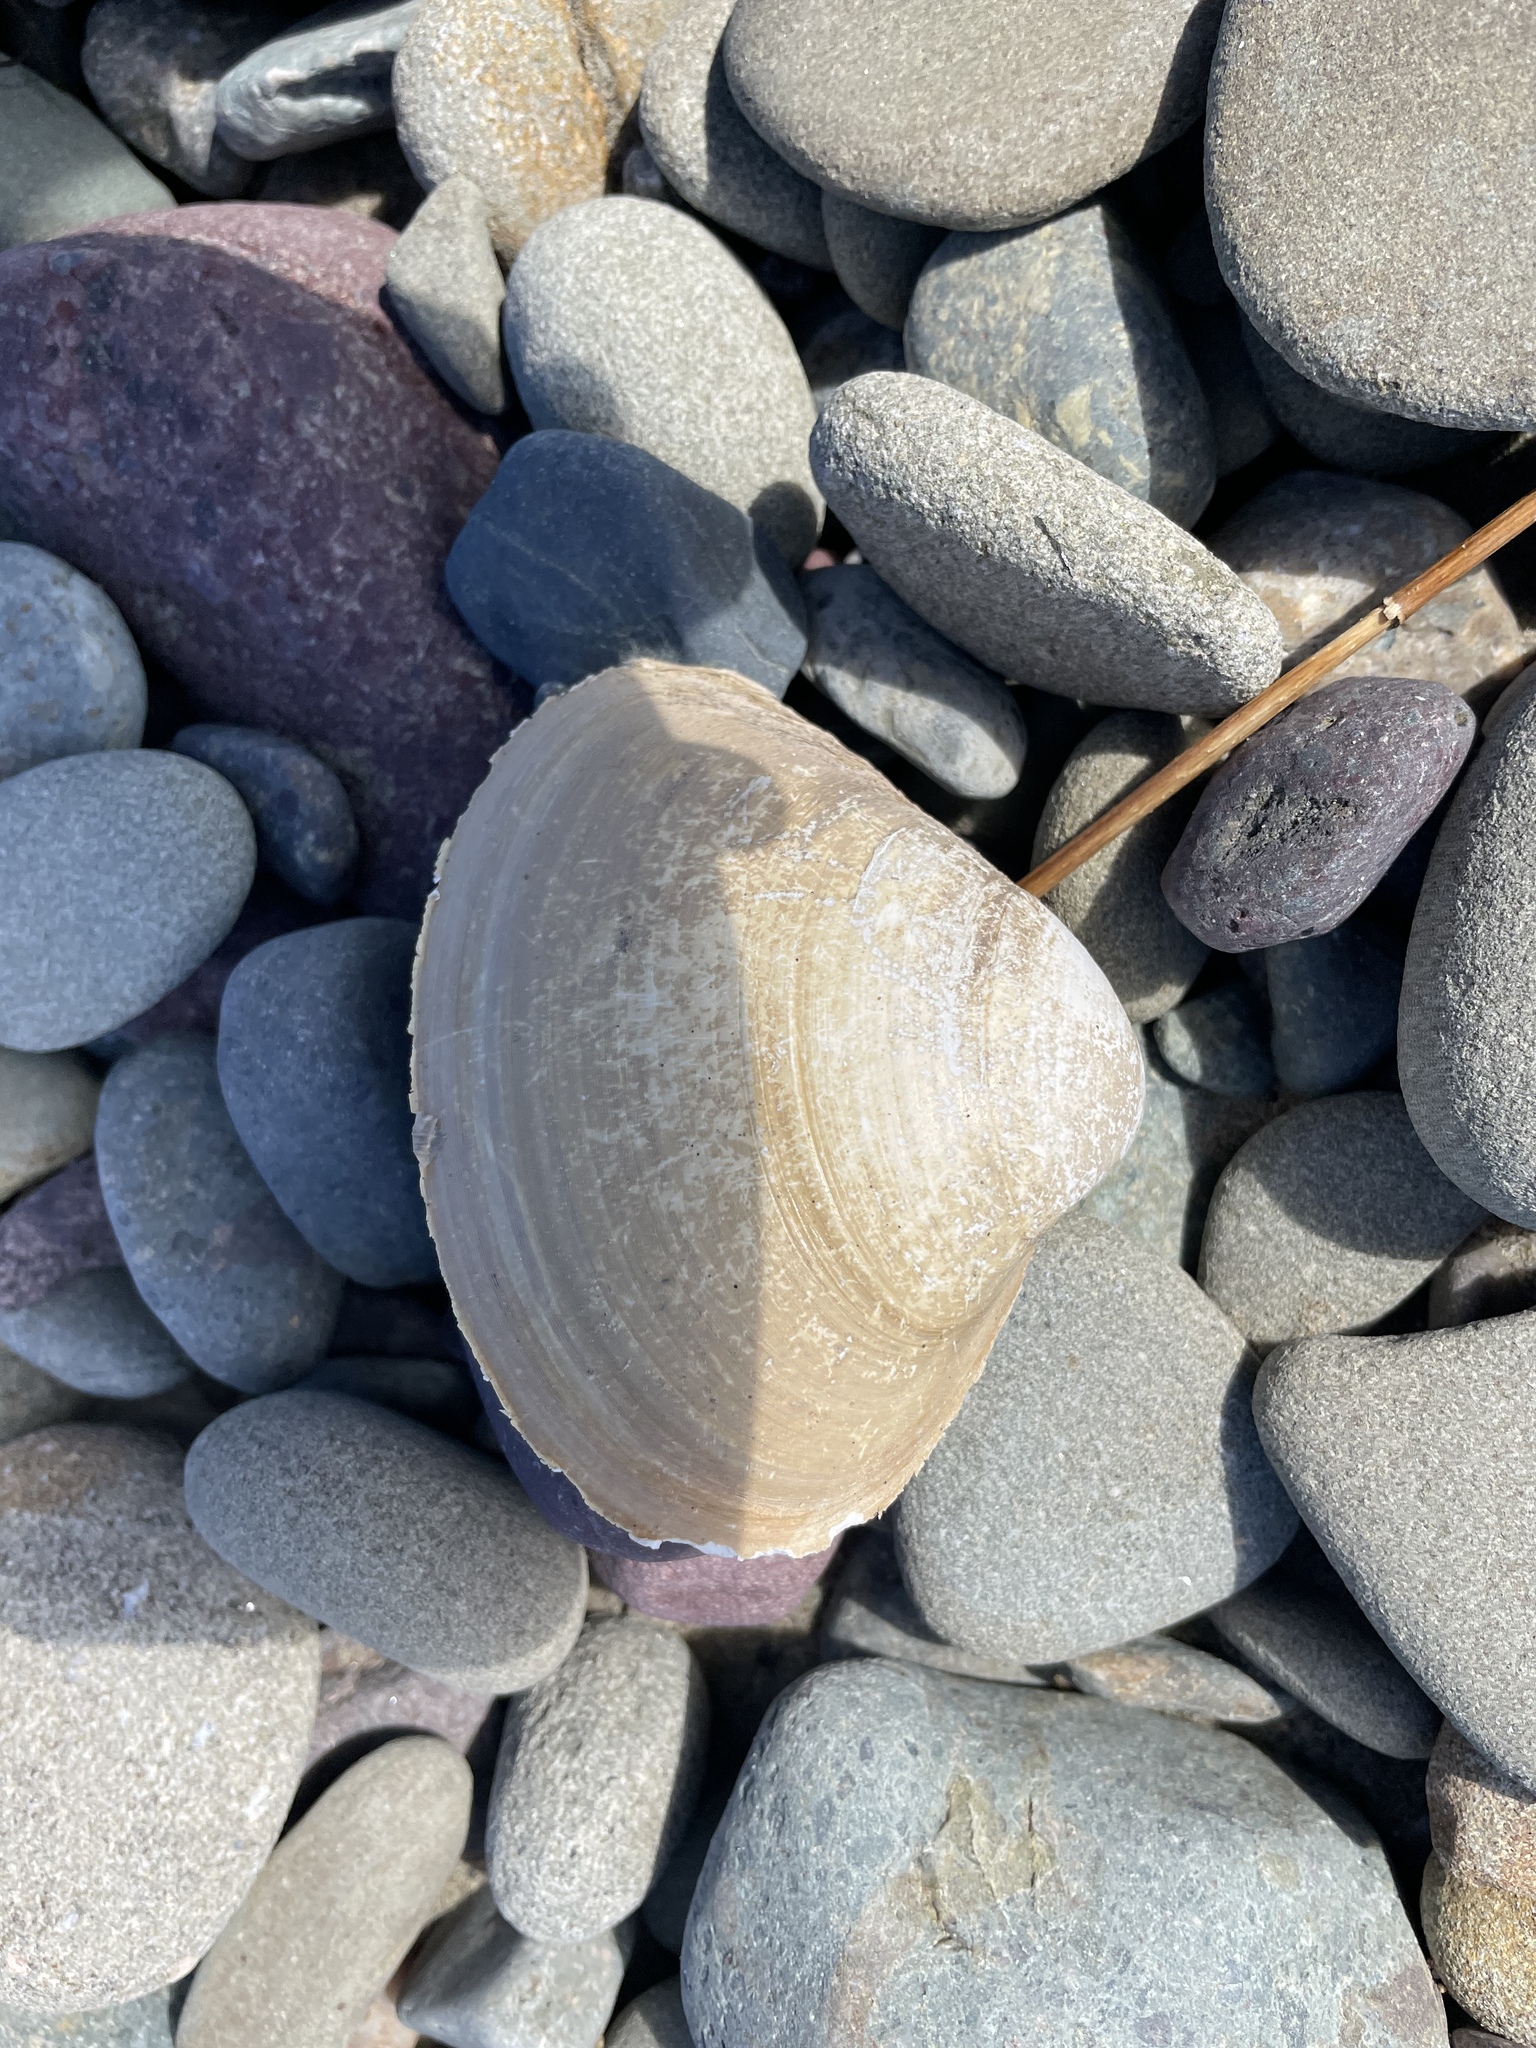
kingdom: Animalia
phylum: Mollusca
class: Bivalvia
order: Venerida
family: Mactridae
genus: Spisula
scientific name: Spisula solidissima
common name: Atlantic surf clam
